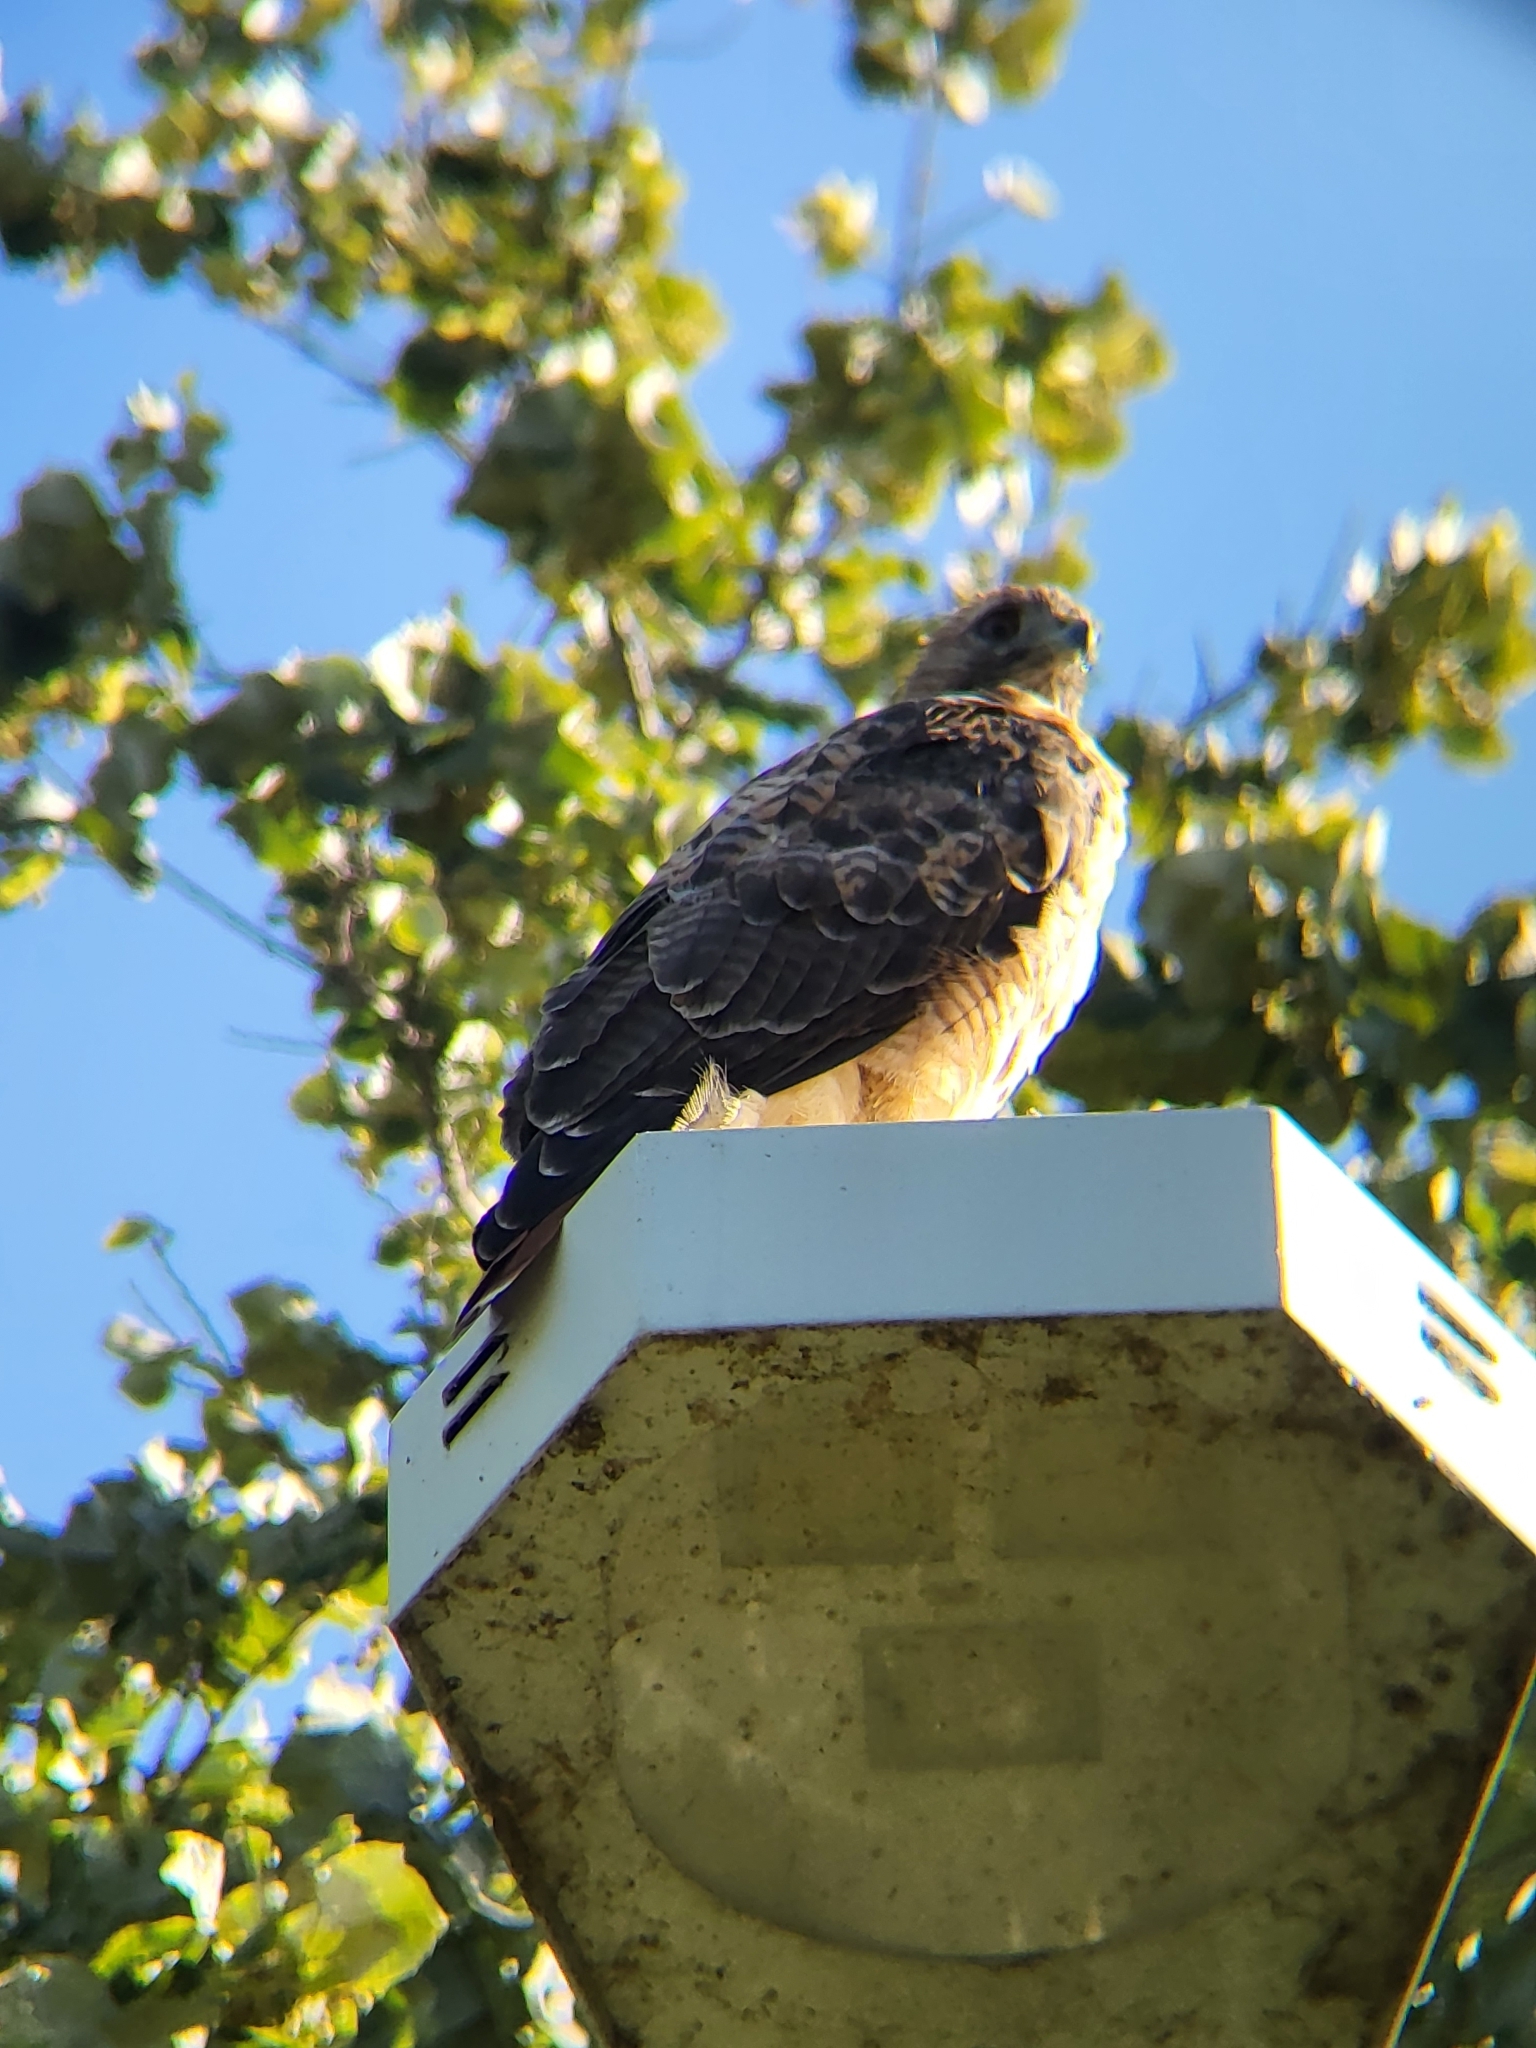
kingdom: Animalia
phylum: Chordata
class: Aves
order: Accipitriformes
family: Accipitridae
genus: Buteo
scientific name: Buteo jamaicensis
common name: Red-tailed hawk
